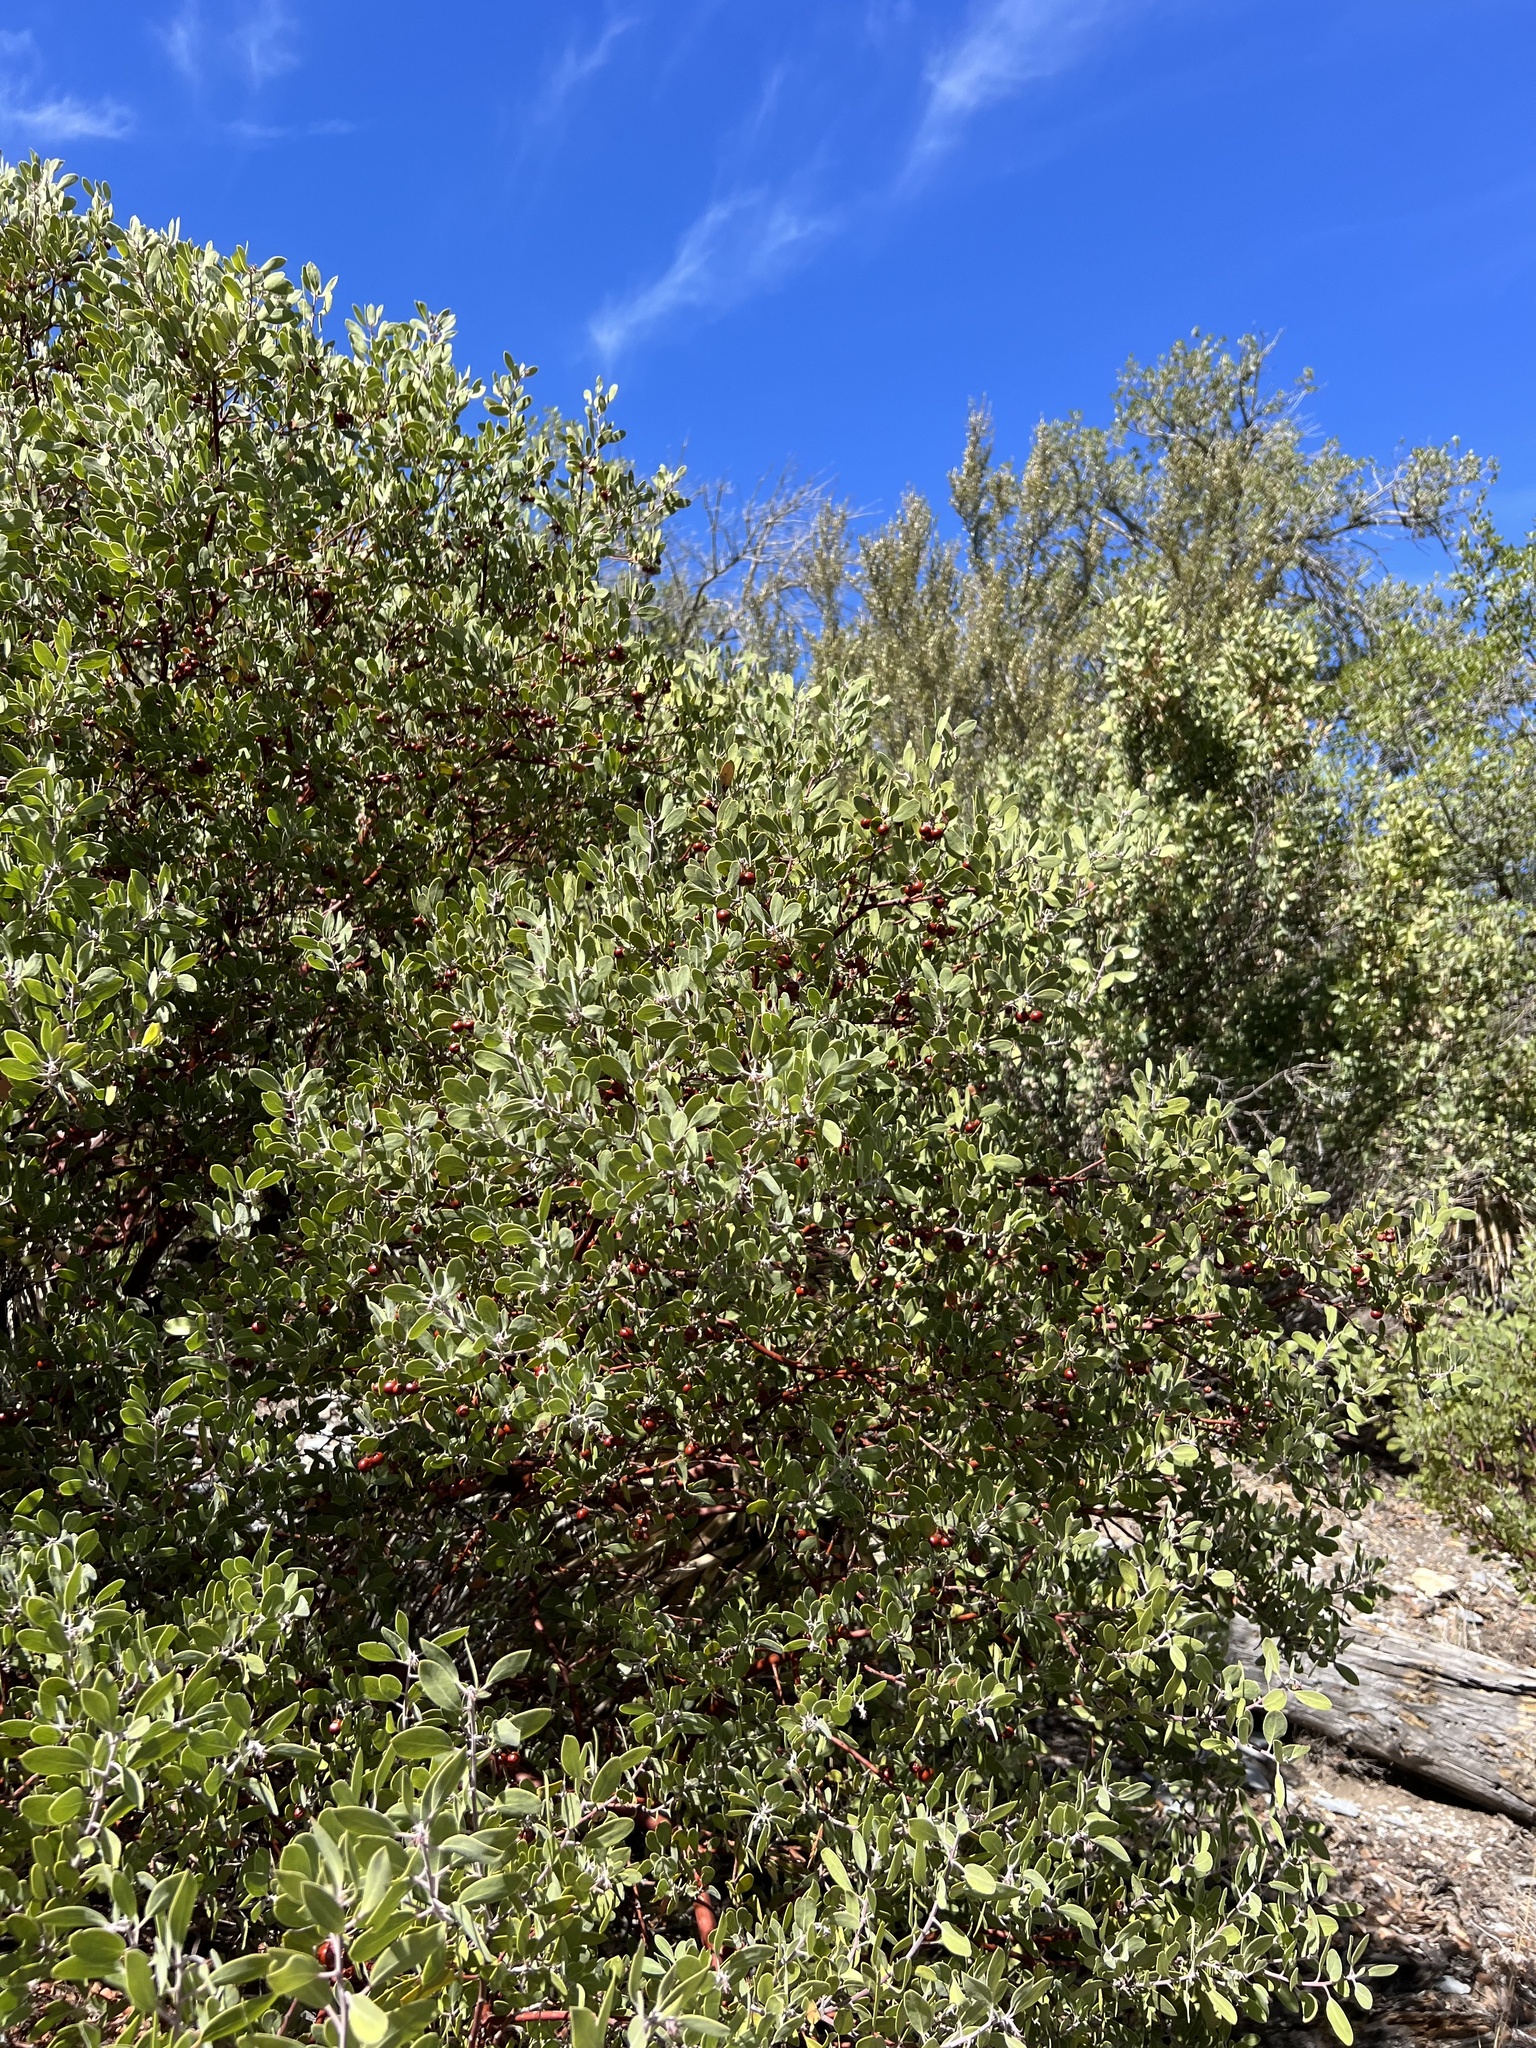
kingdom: Plantae
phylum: Tracheophyta
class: Magnoliopsida
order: Ericales
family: Ericaceae
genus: Arctostaphylos
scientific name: Arctostaphylos pungens
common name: Mexican manzanita
